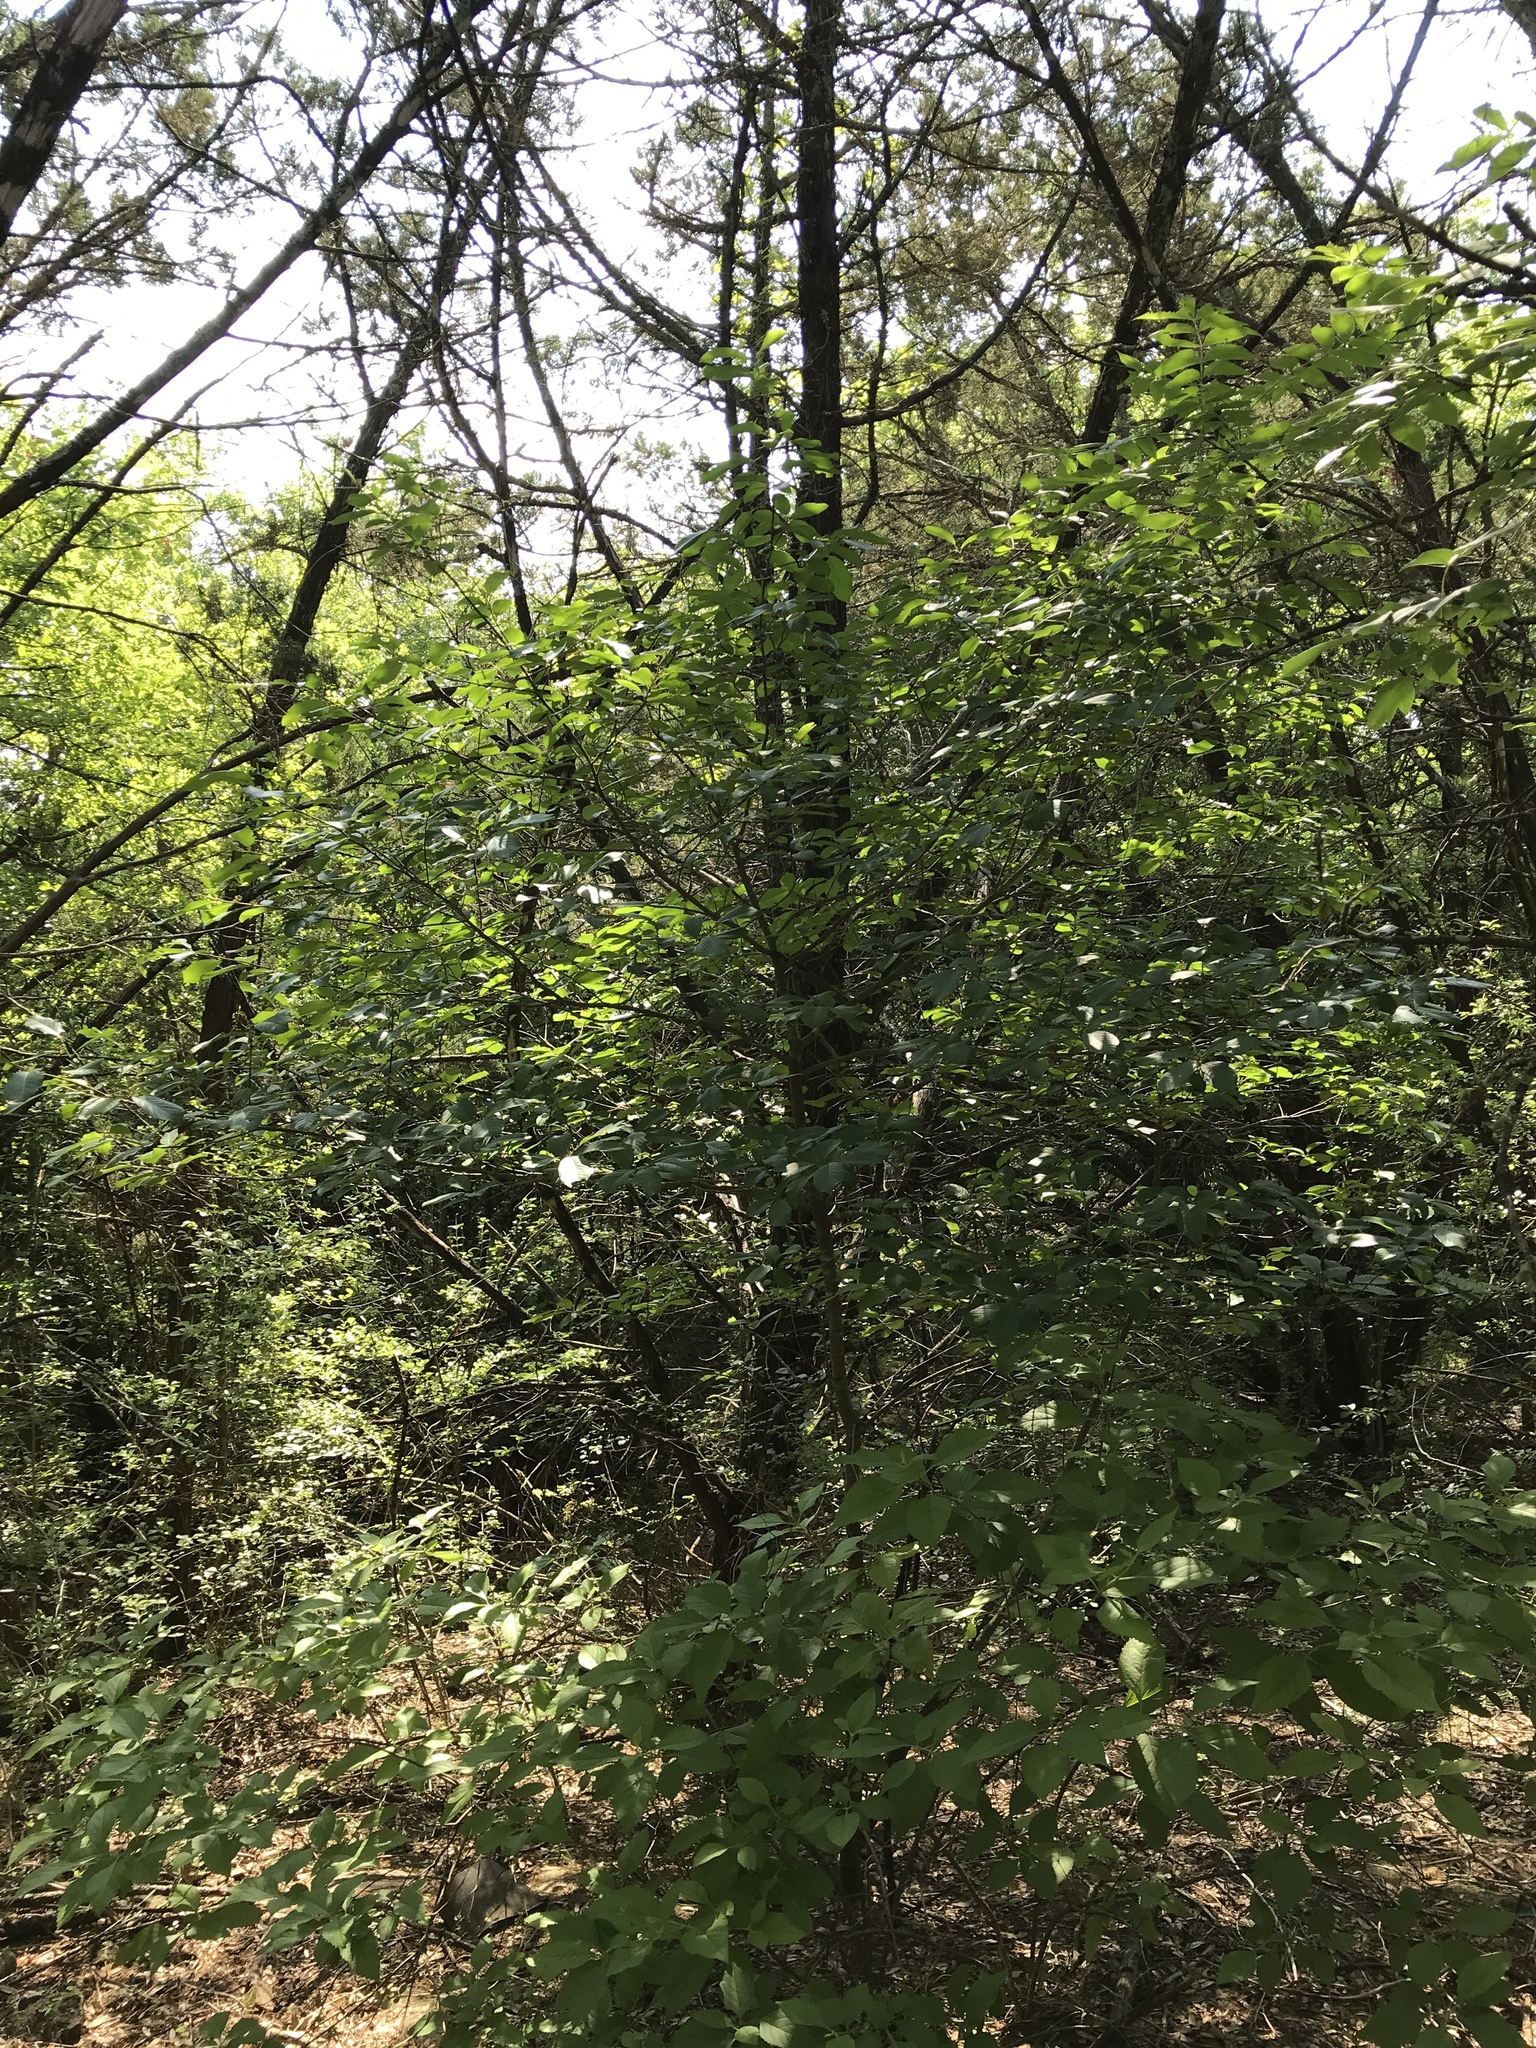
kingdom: Plantae
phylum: Tracheophyta
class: Magnoliopsida
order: Rosales
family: Rhamnaceae
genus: Frangula
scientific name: Frangula caroliniana
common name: Carolina buckthorn
